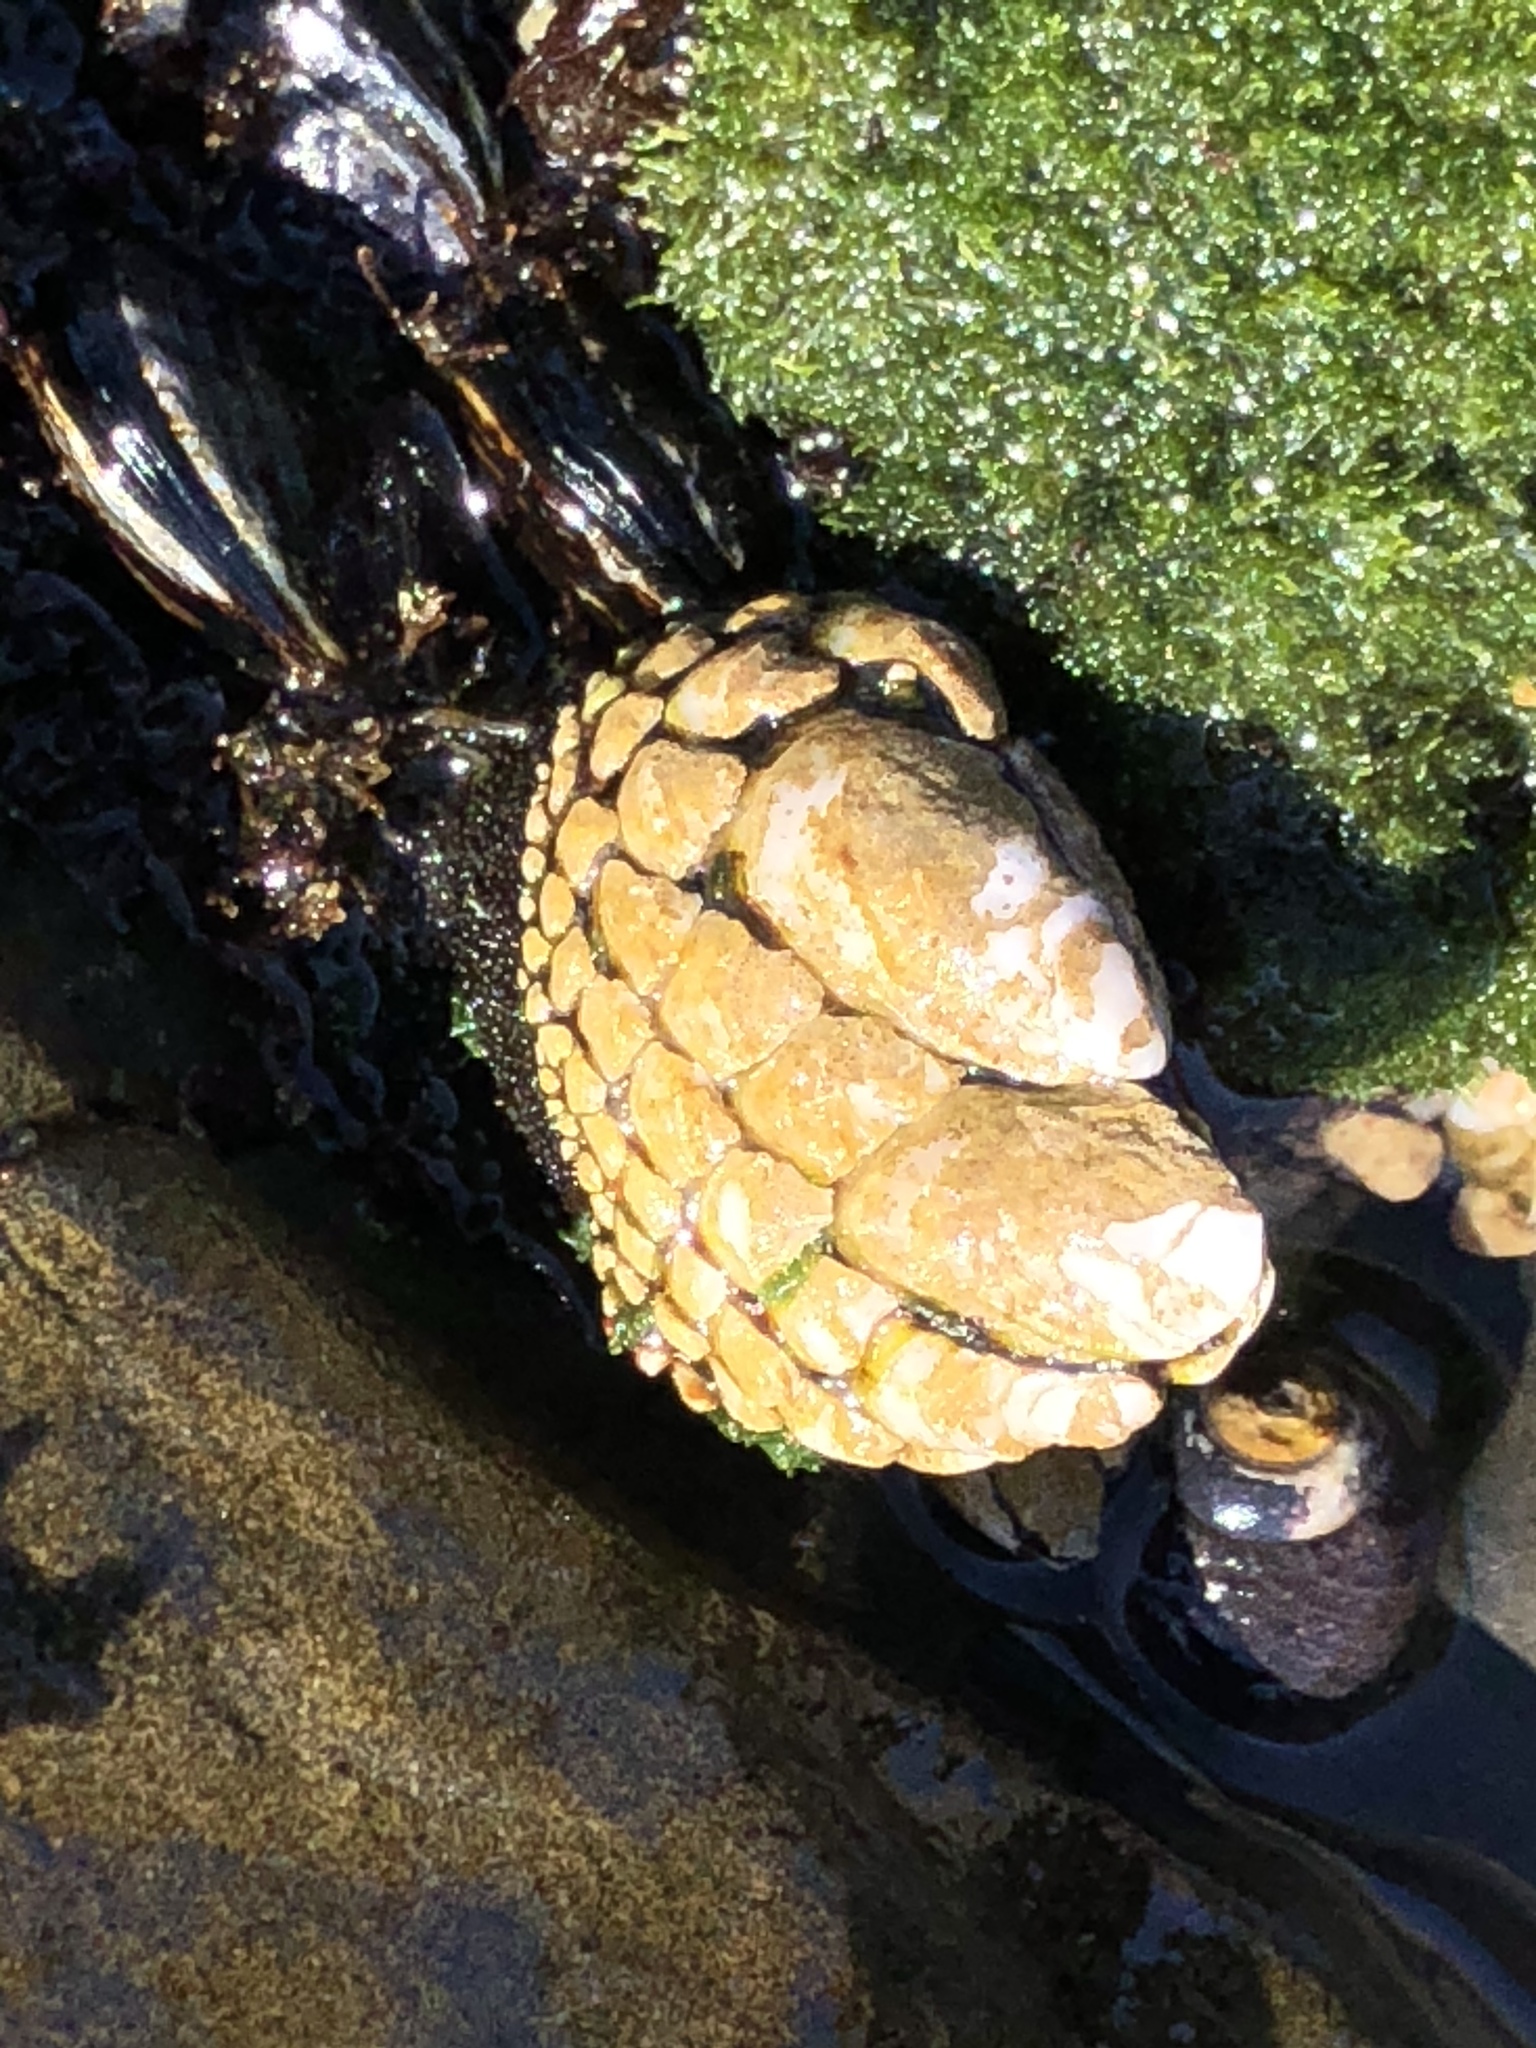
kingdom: Animalia
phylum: Arthropoda
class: Maxillopoda
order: Pedunculata
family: Pollicipedidae
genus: Pollicipes
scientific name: Pollicipes polymerus
